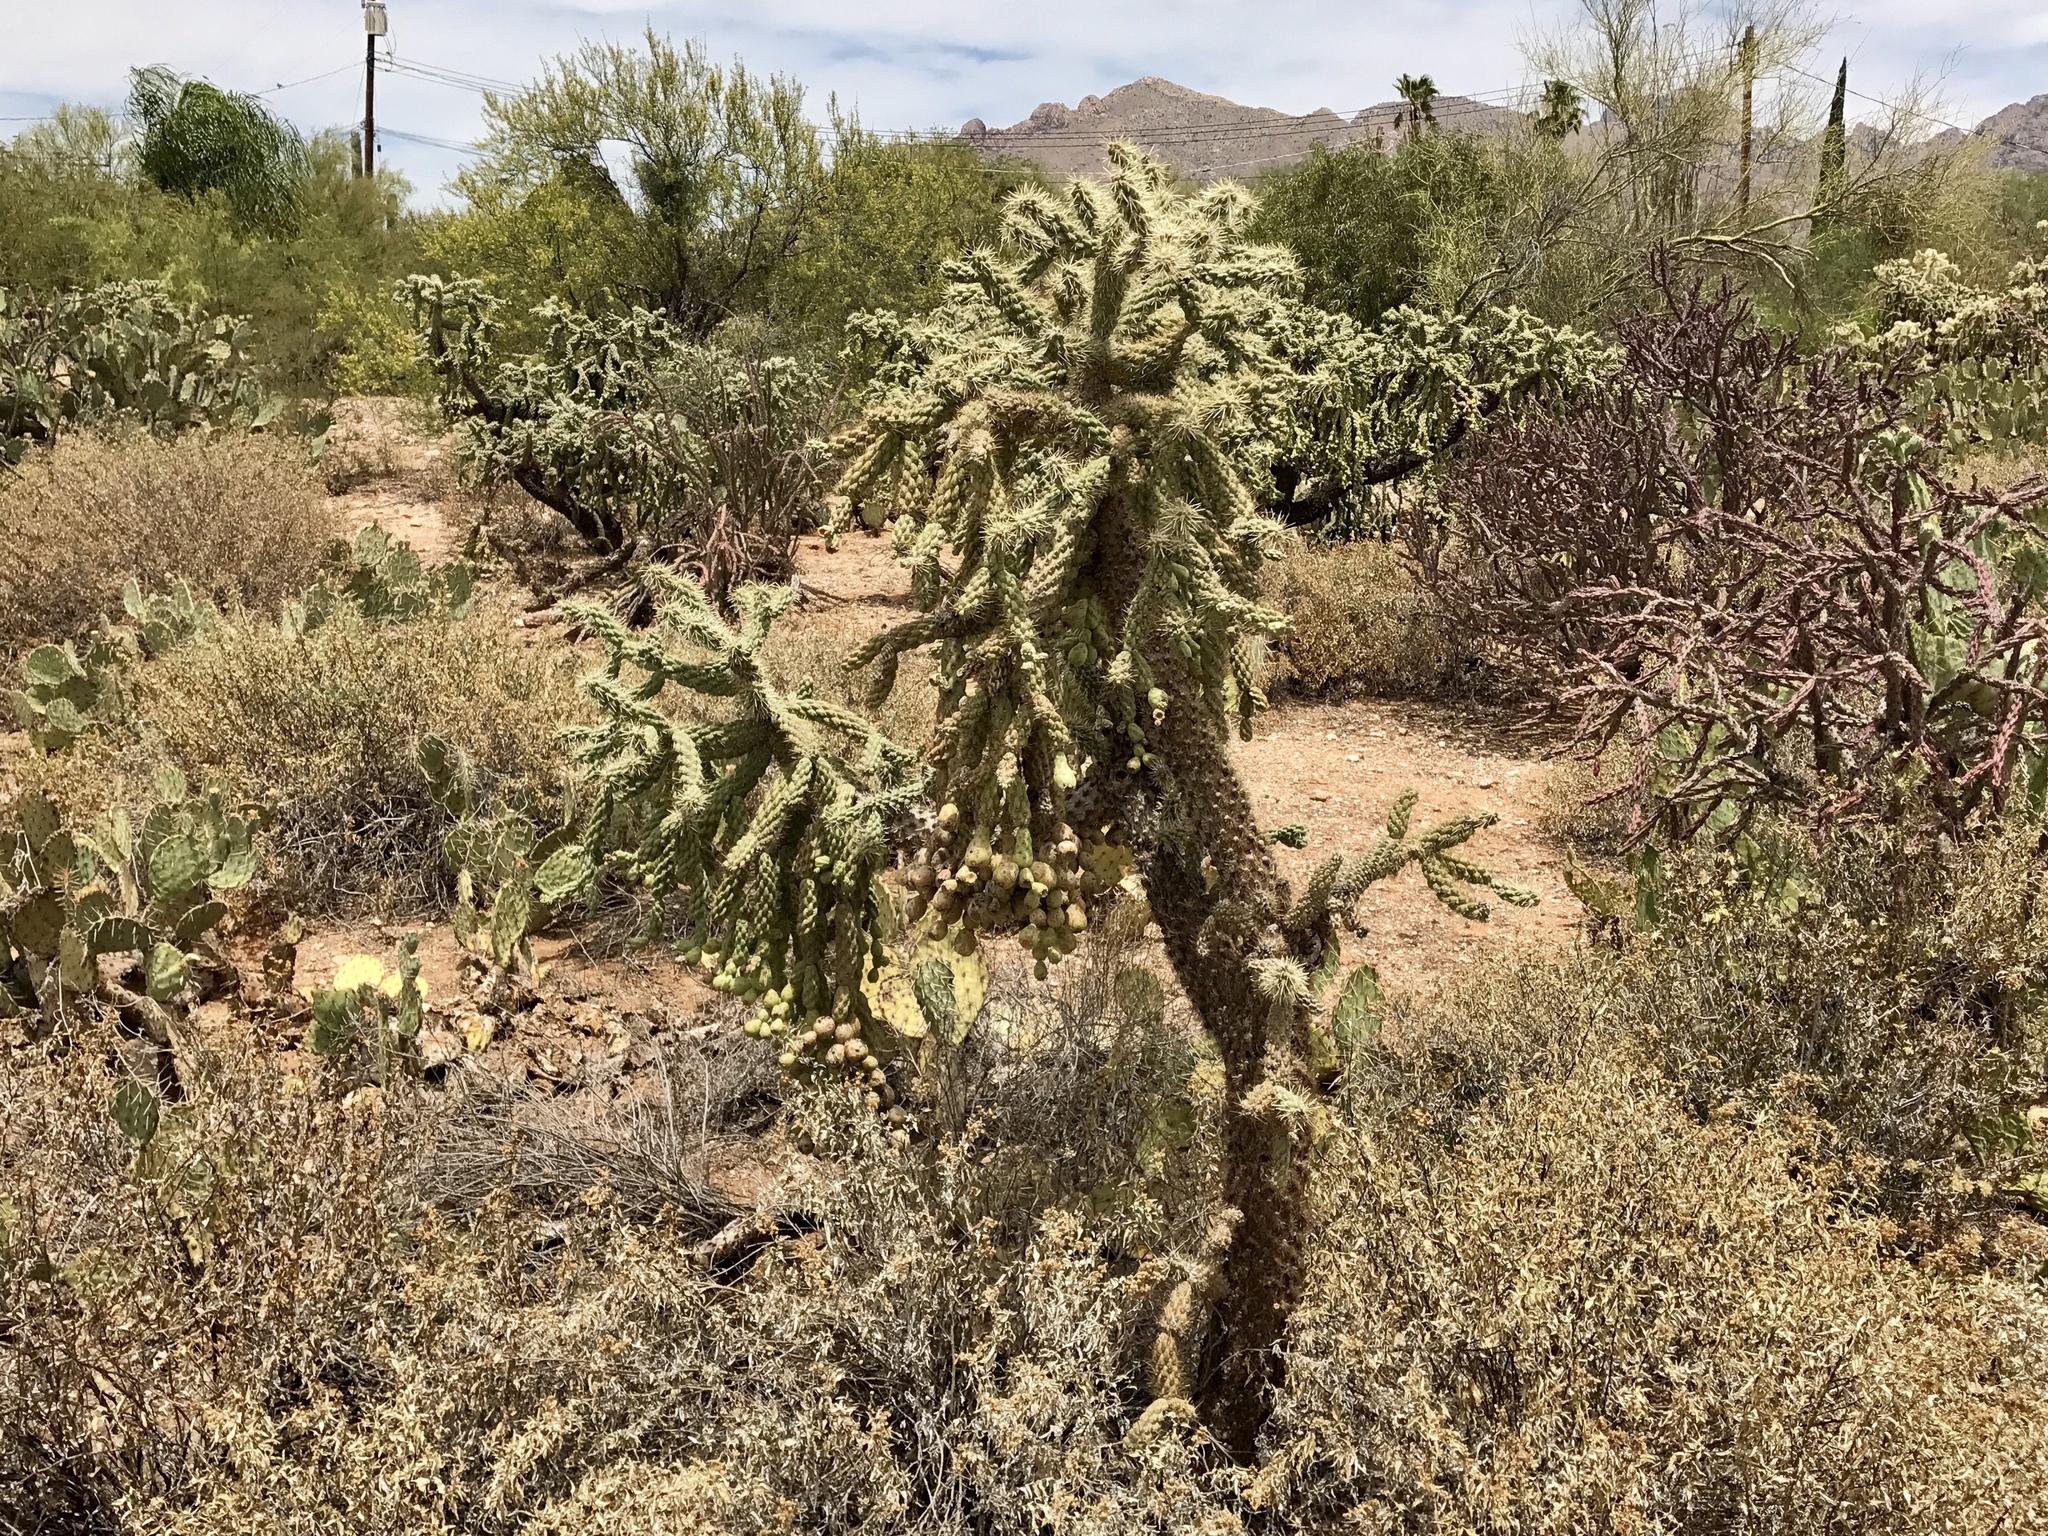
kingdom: Plantae
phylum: Tracheophyta
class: Magnoliopsida
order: Caryophyllales
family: Cactaceae
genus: Cylindropuntia
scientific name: Cylindropuntia fulgida
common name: Jumping cholla
